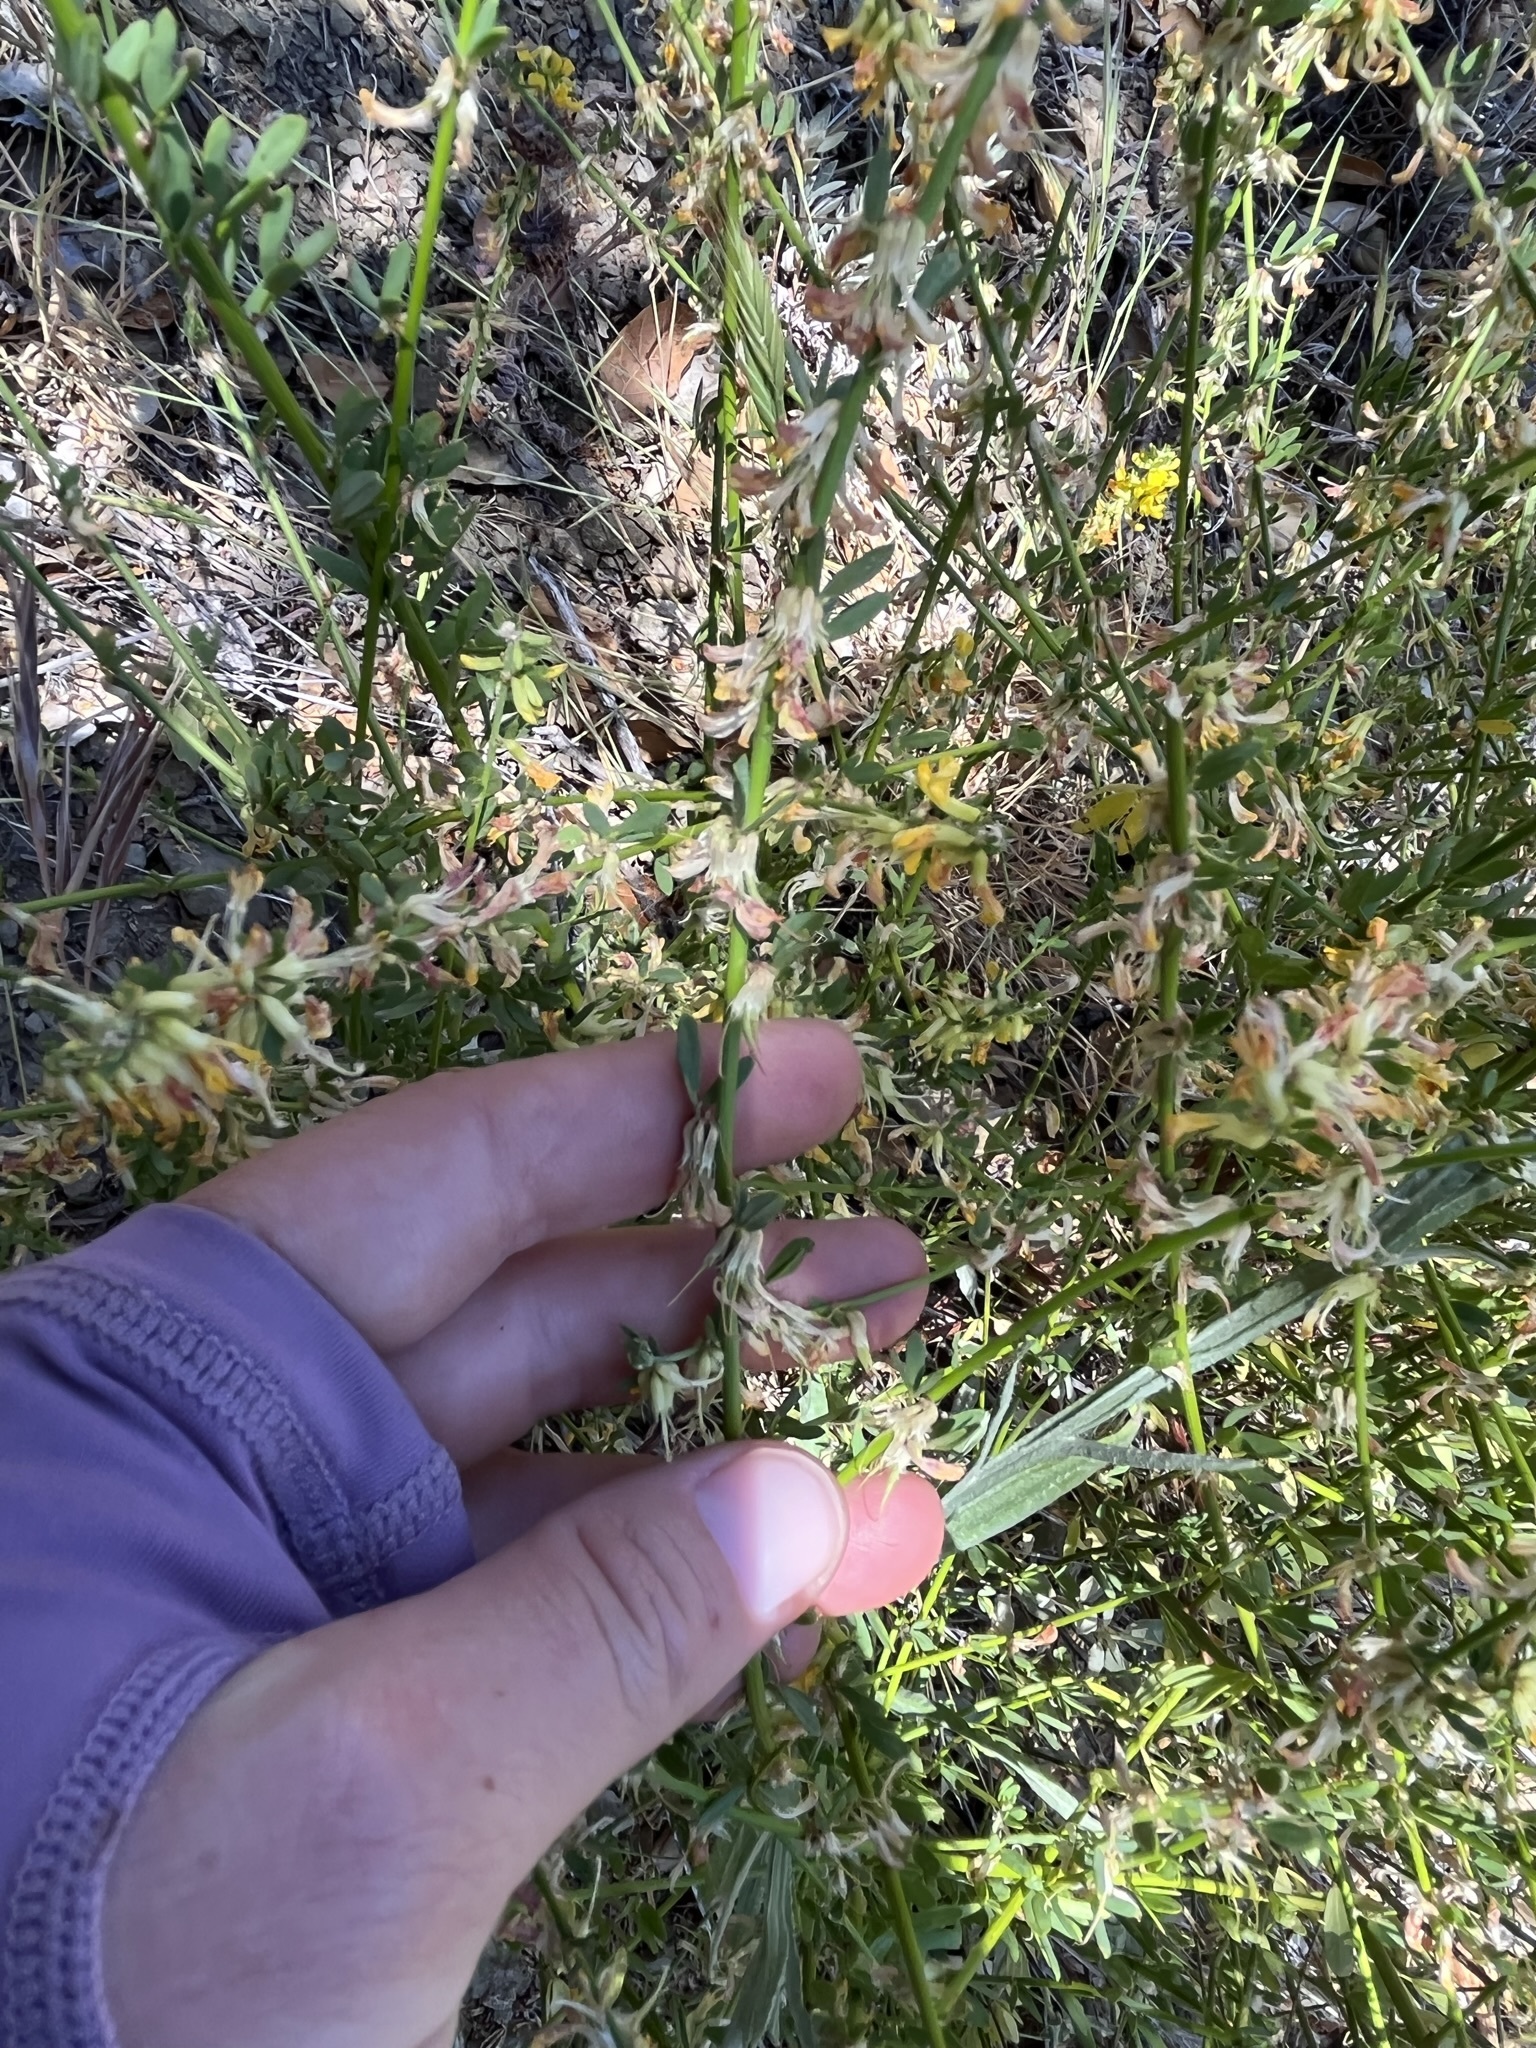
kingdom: Plantae
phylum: Tracheophyta
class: Magnoliopsida
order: Fabales
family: Fabaceae
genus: Acmispon
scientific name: Acmispon glaber
